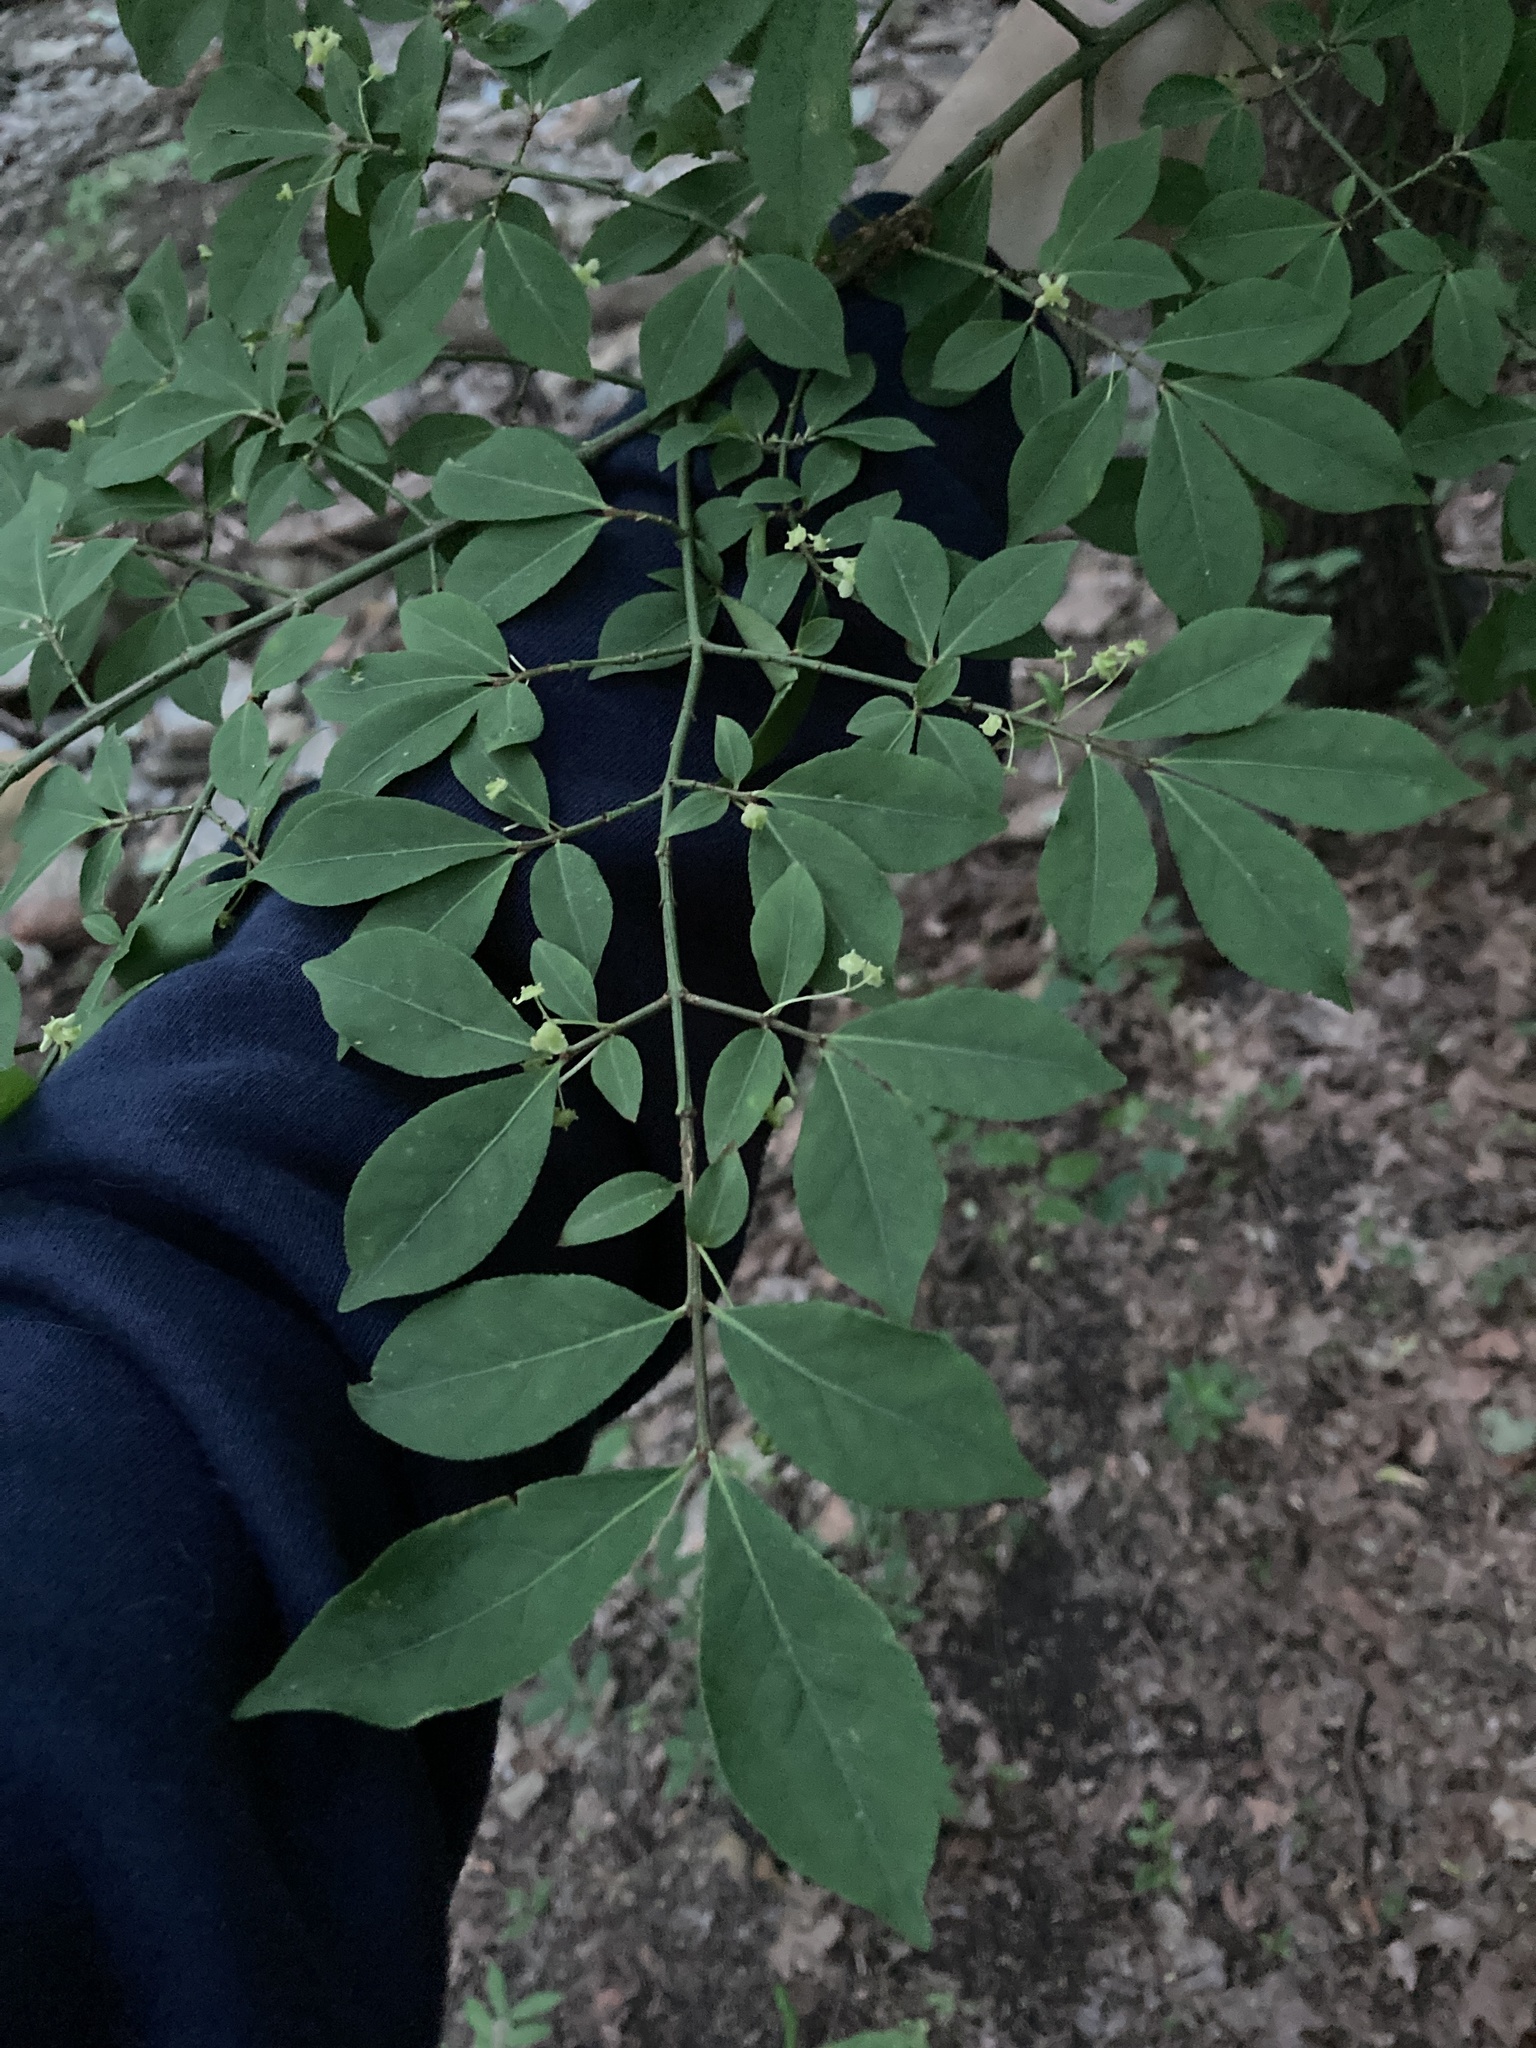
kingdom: Plantae
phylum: Tracheophyta
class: Magnoliopsida
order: Celastrales
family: Celastraceae
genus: Euonymus
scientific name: Euonymus alatus
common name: Winged euonymus
